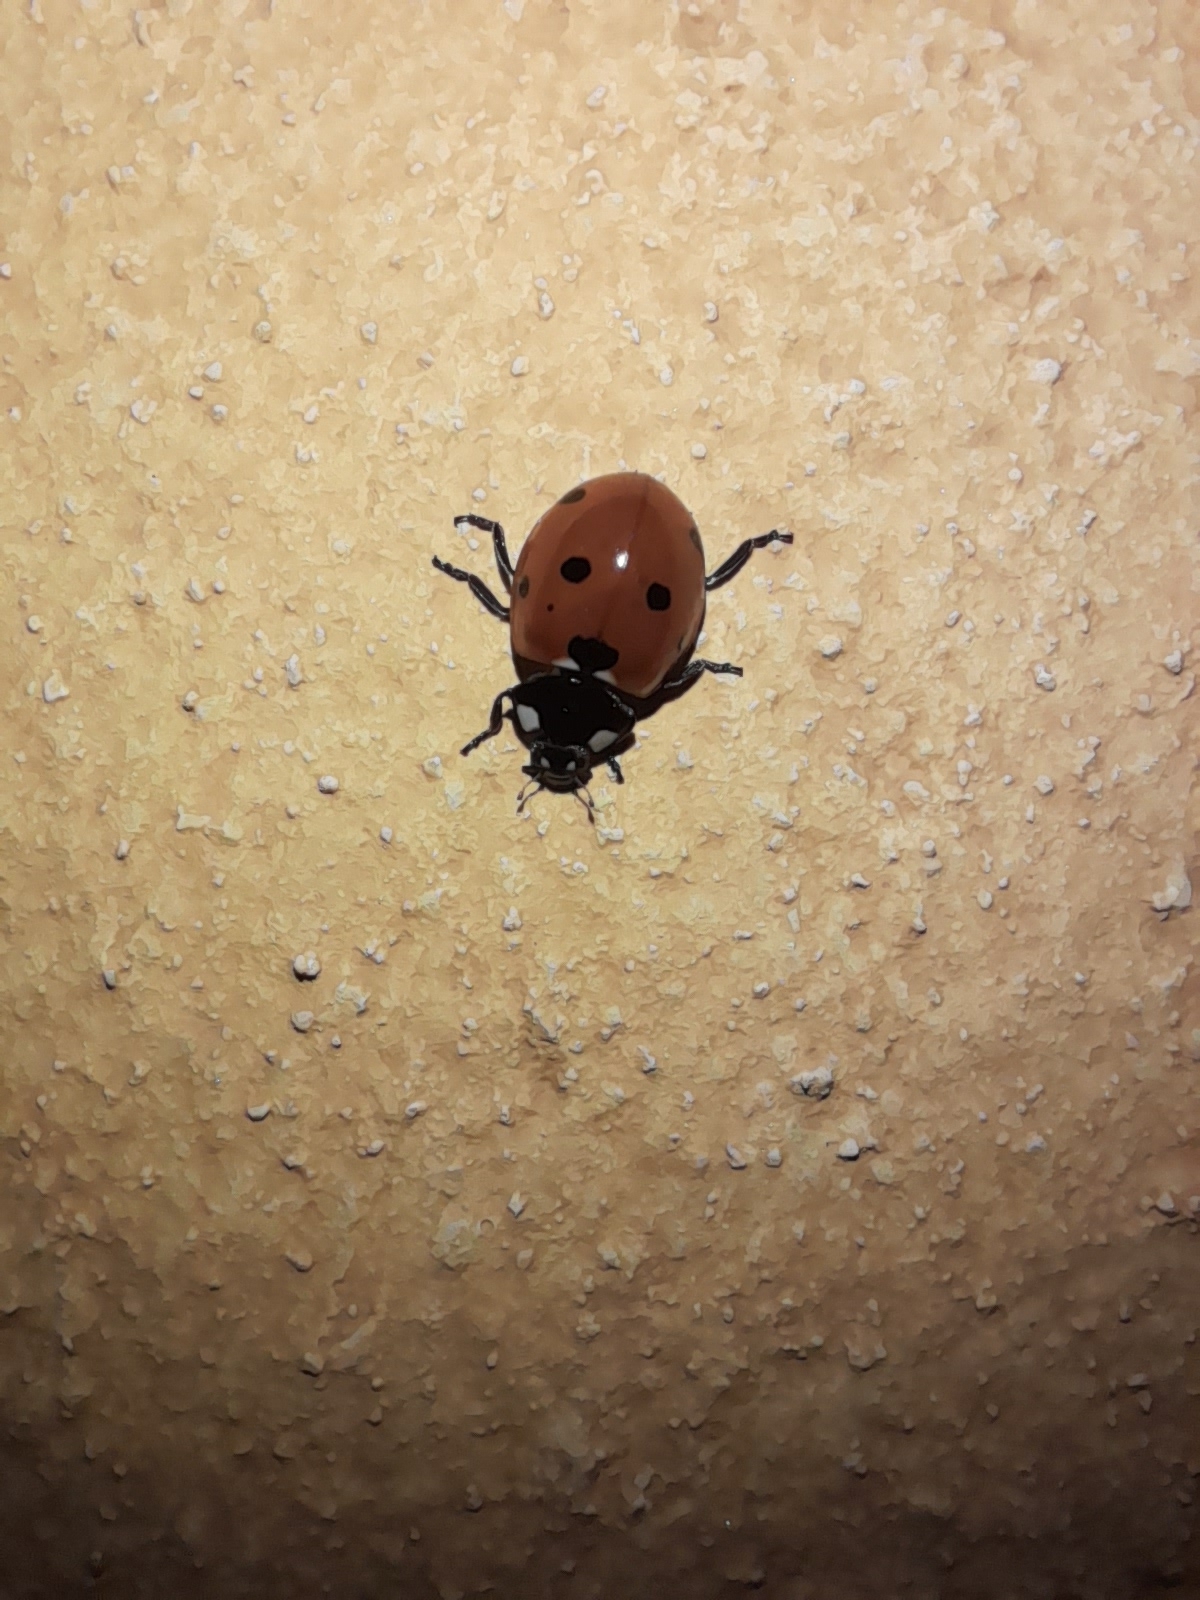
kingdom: Animalia
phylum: Arthropoda
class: Insecta
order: Coleoptera
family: Coccinellidae
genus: Coccinella
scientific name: Coccinella septempunctata
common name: Sevenspotted lady beetle
